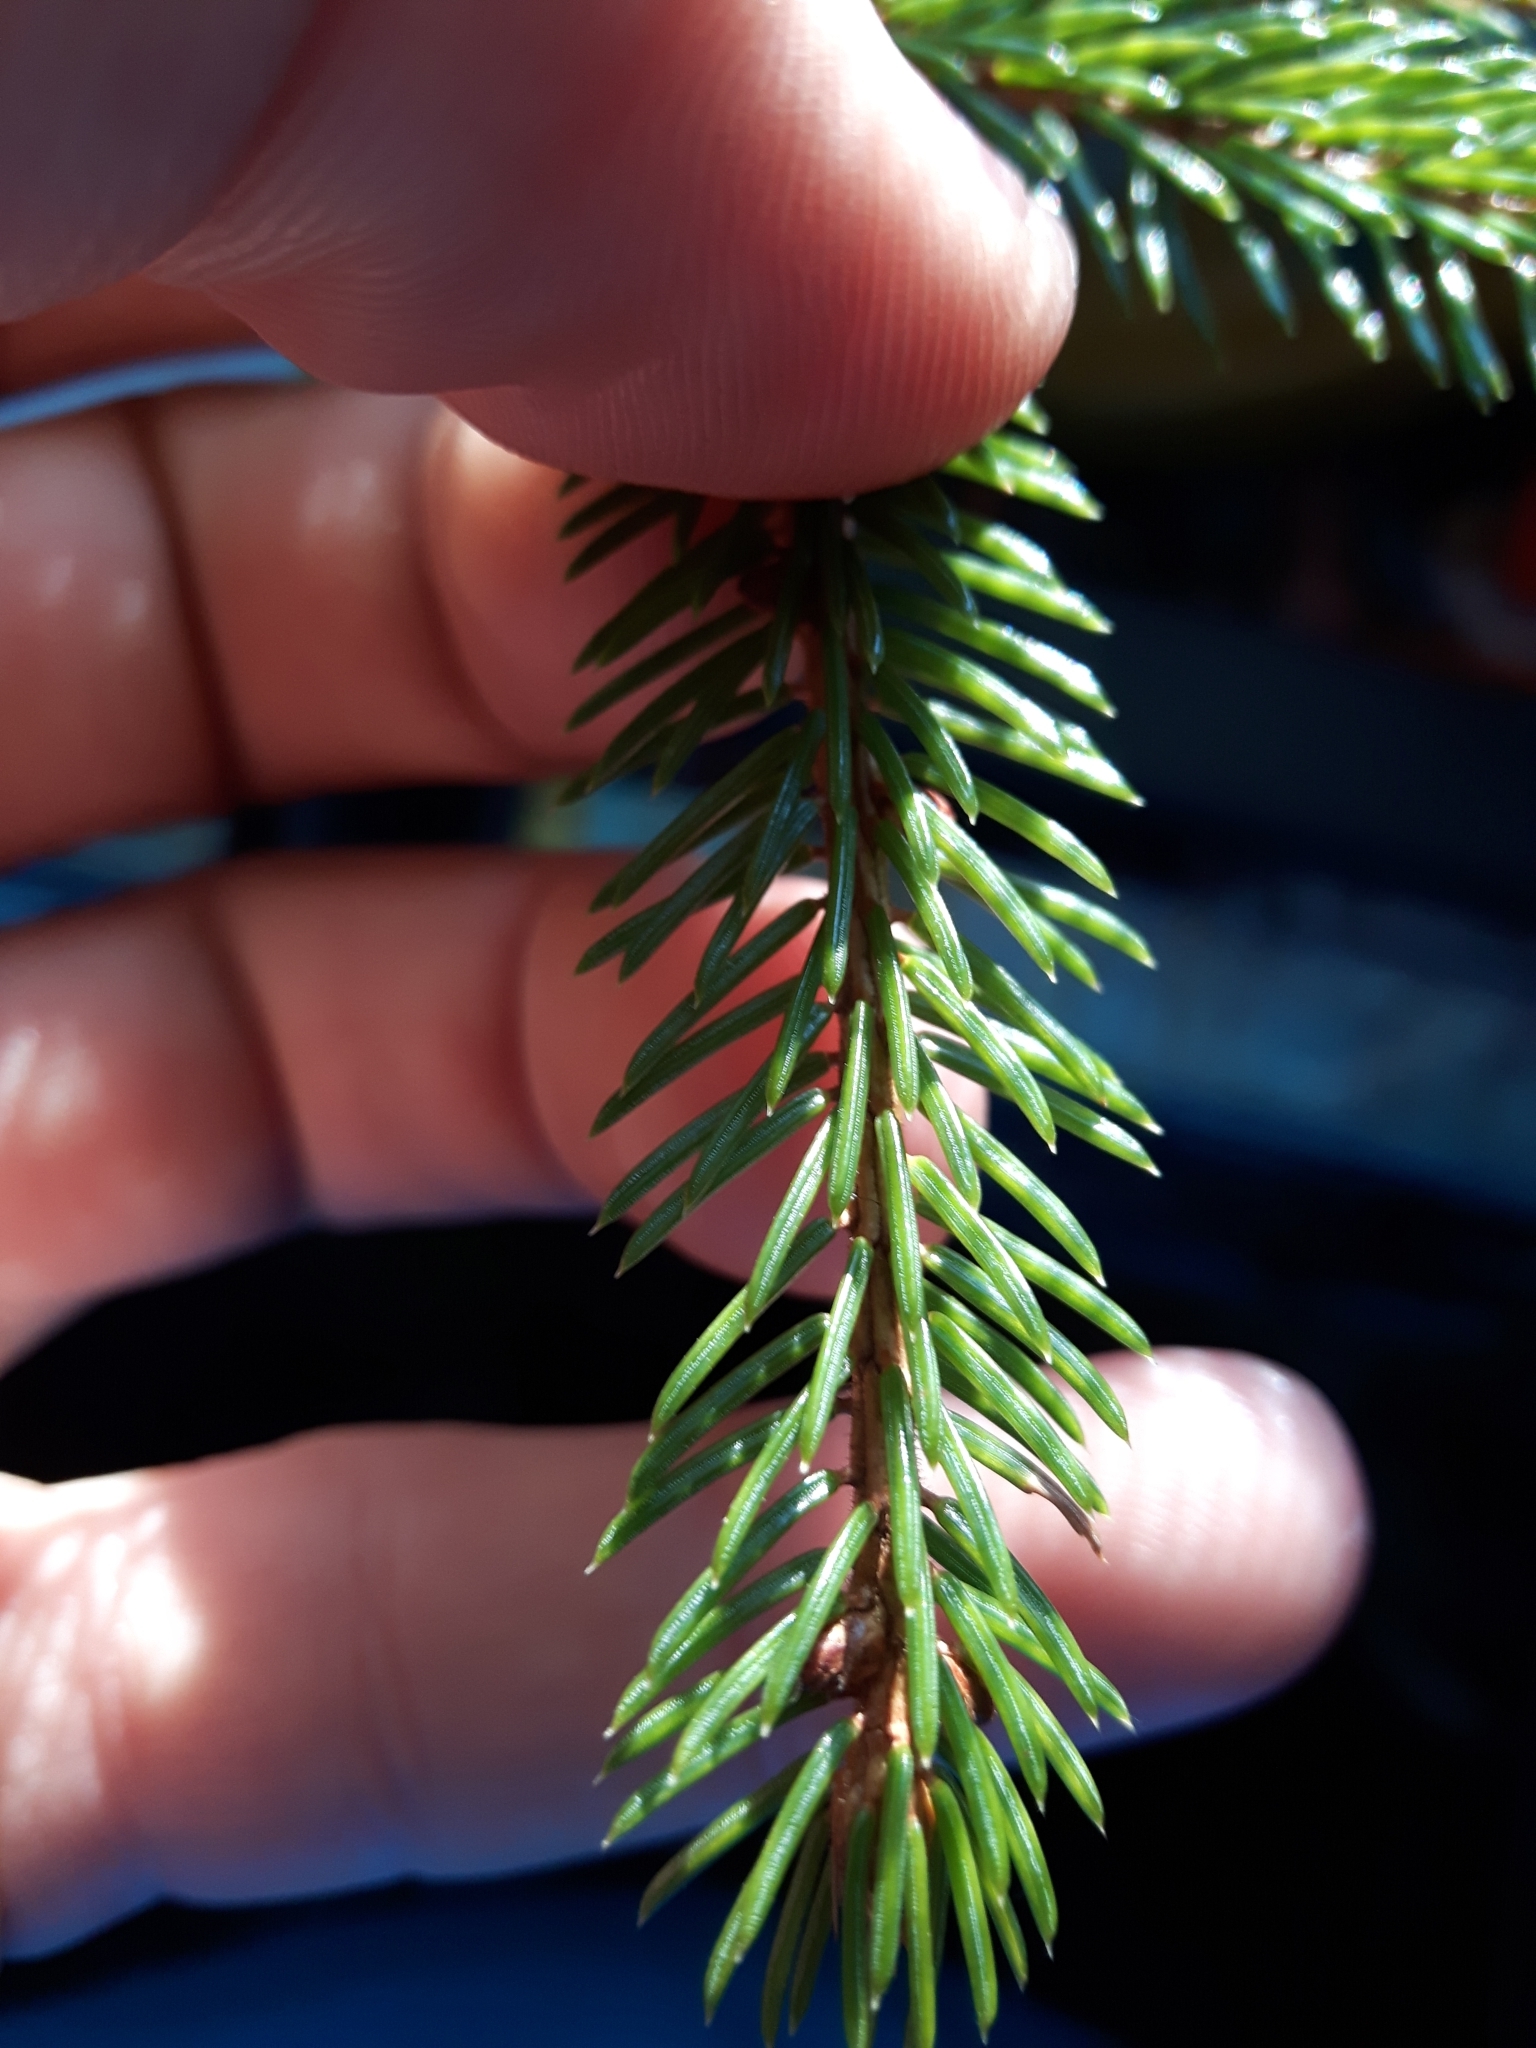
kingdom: Plantae
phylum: Tracheophyta
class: Pinopsida
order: Pinales
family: Pinaceae
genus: Picea
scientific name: Picea rubens
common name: Red spruce
